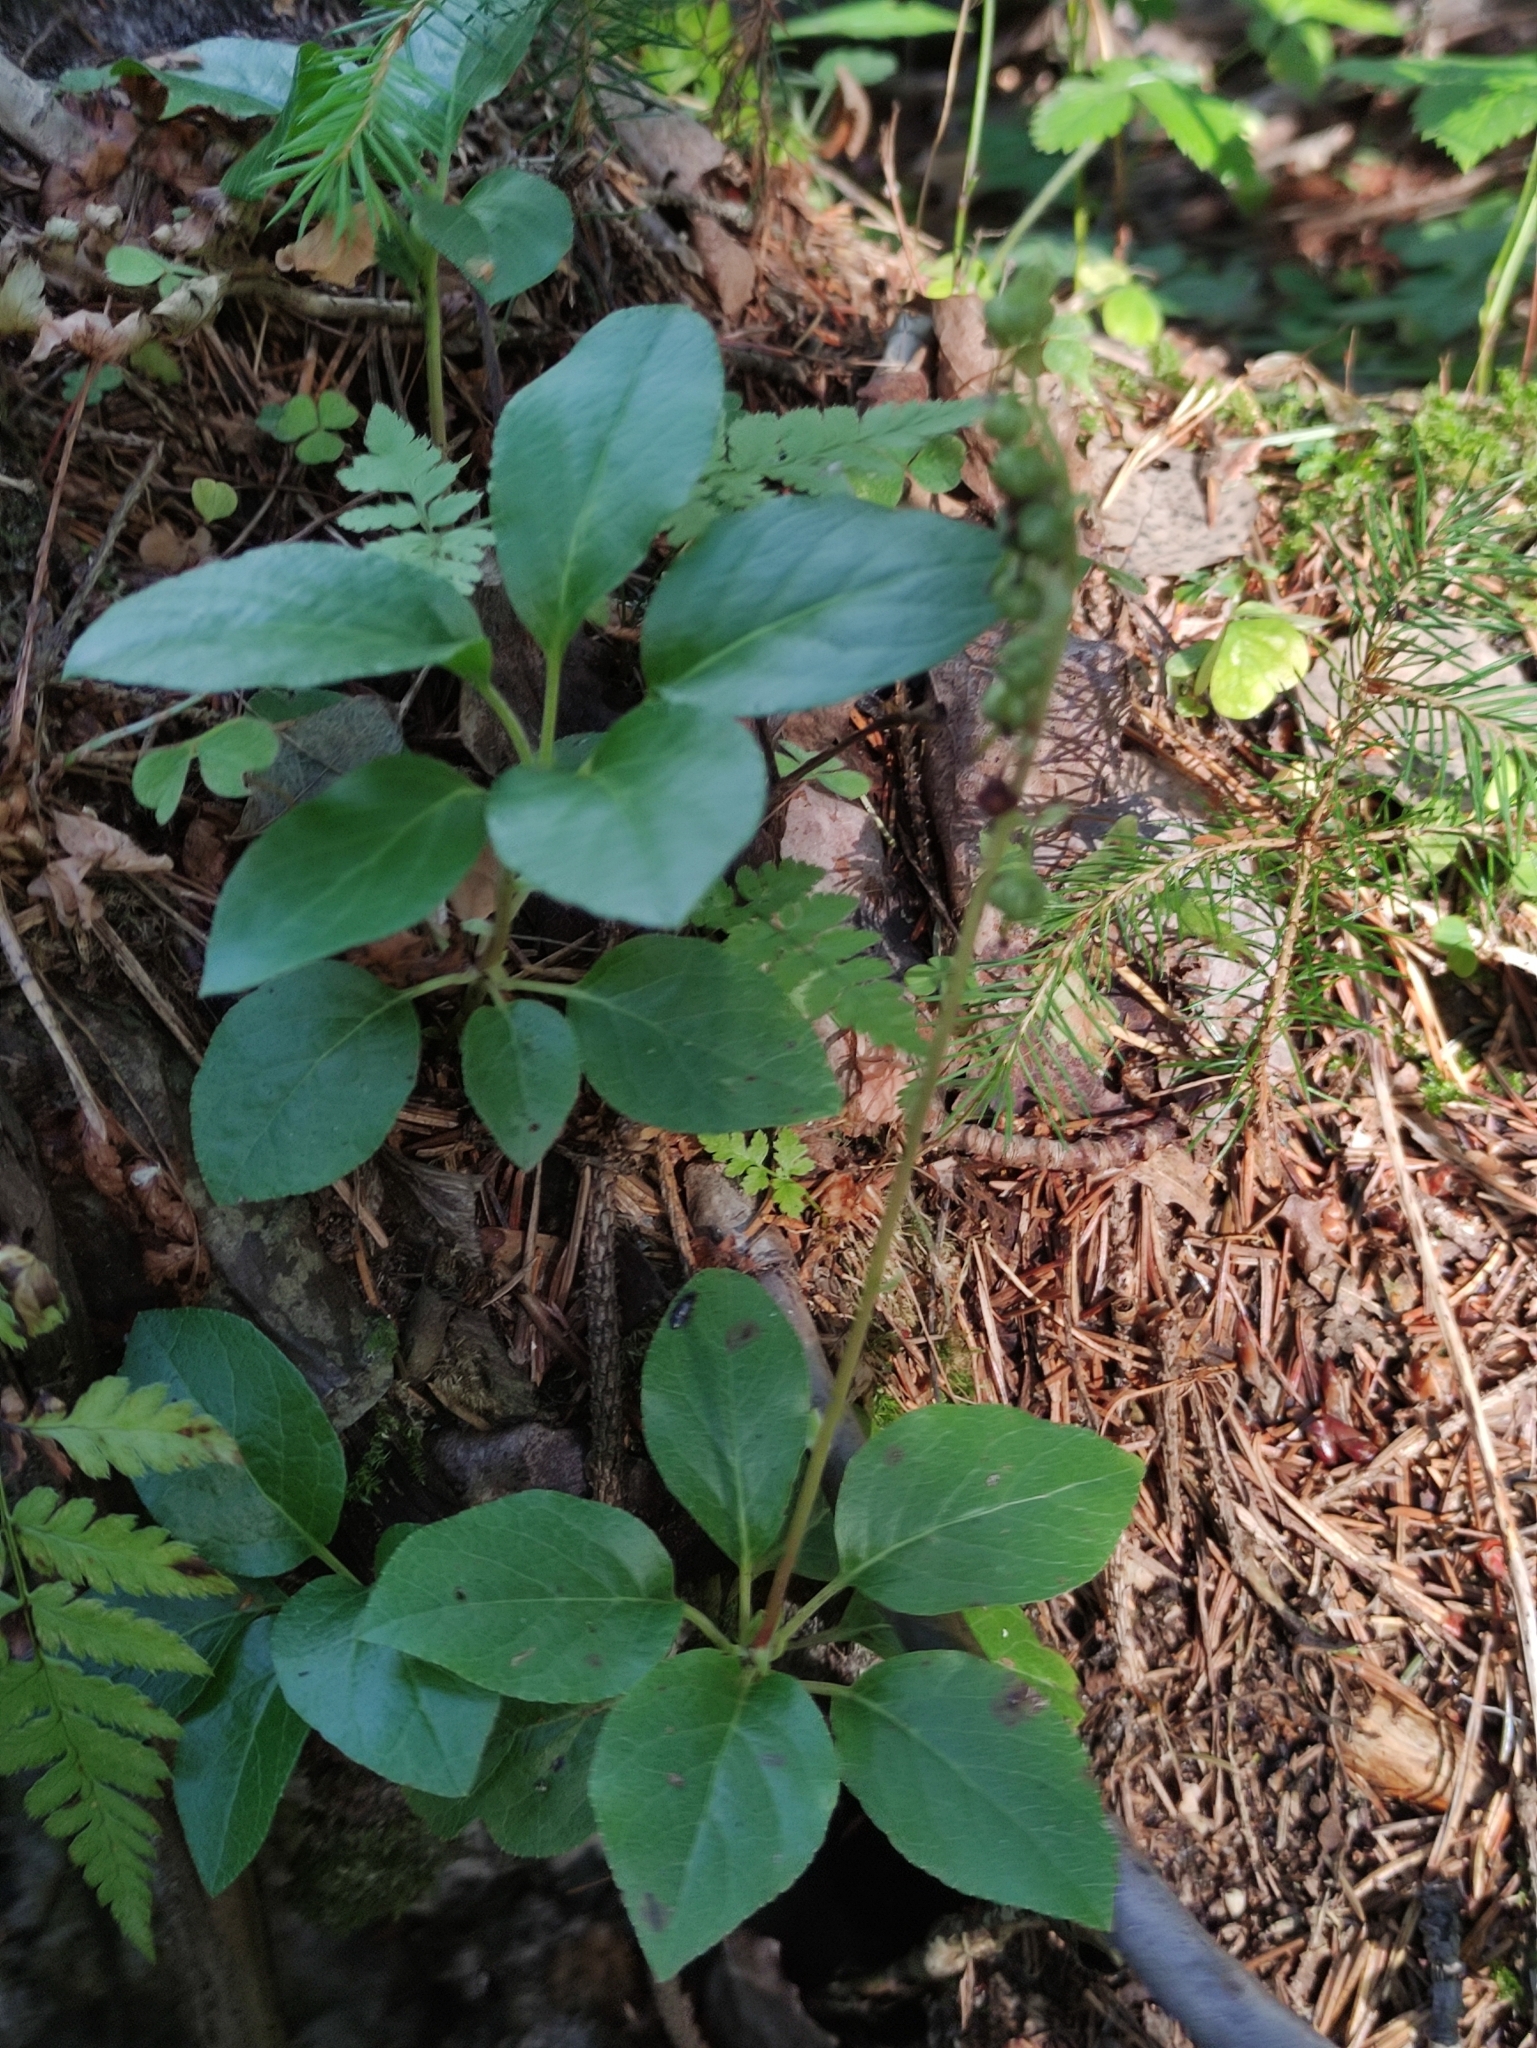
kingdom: Plantae
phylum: Tracheophyta
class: Magnoliopsida
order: Ericales
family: Ericaceae
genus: Orthilia
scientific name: Orthilia secunda
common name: One-sided orthilia
